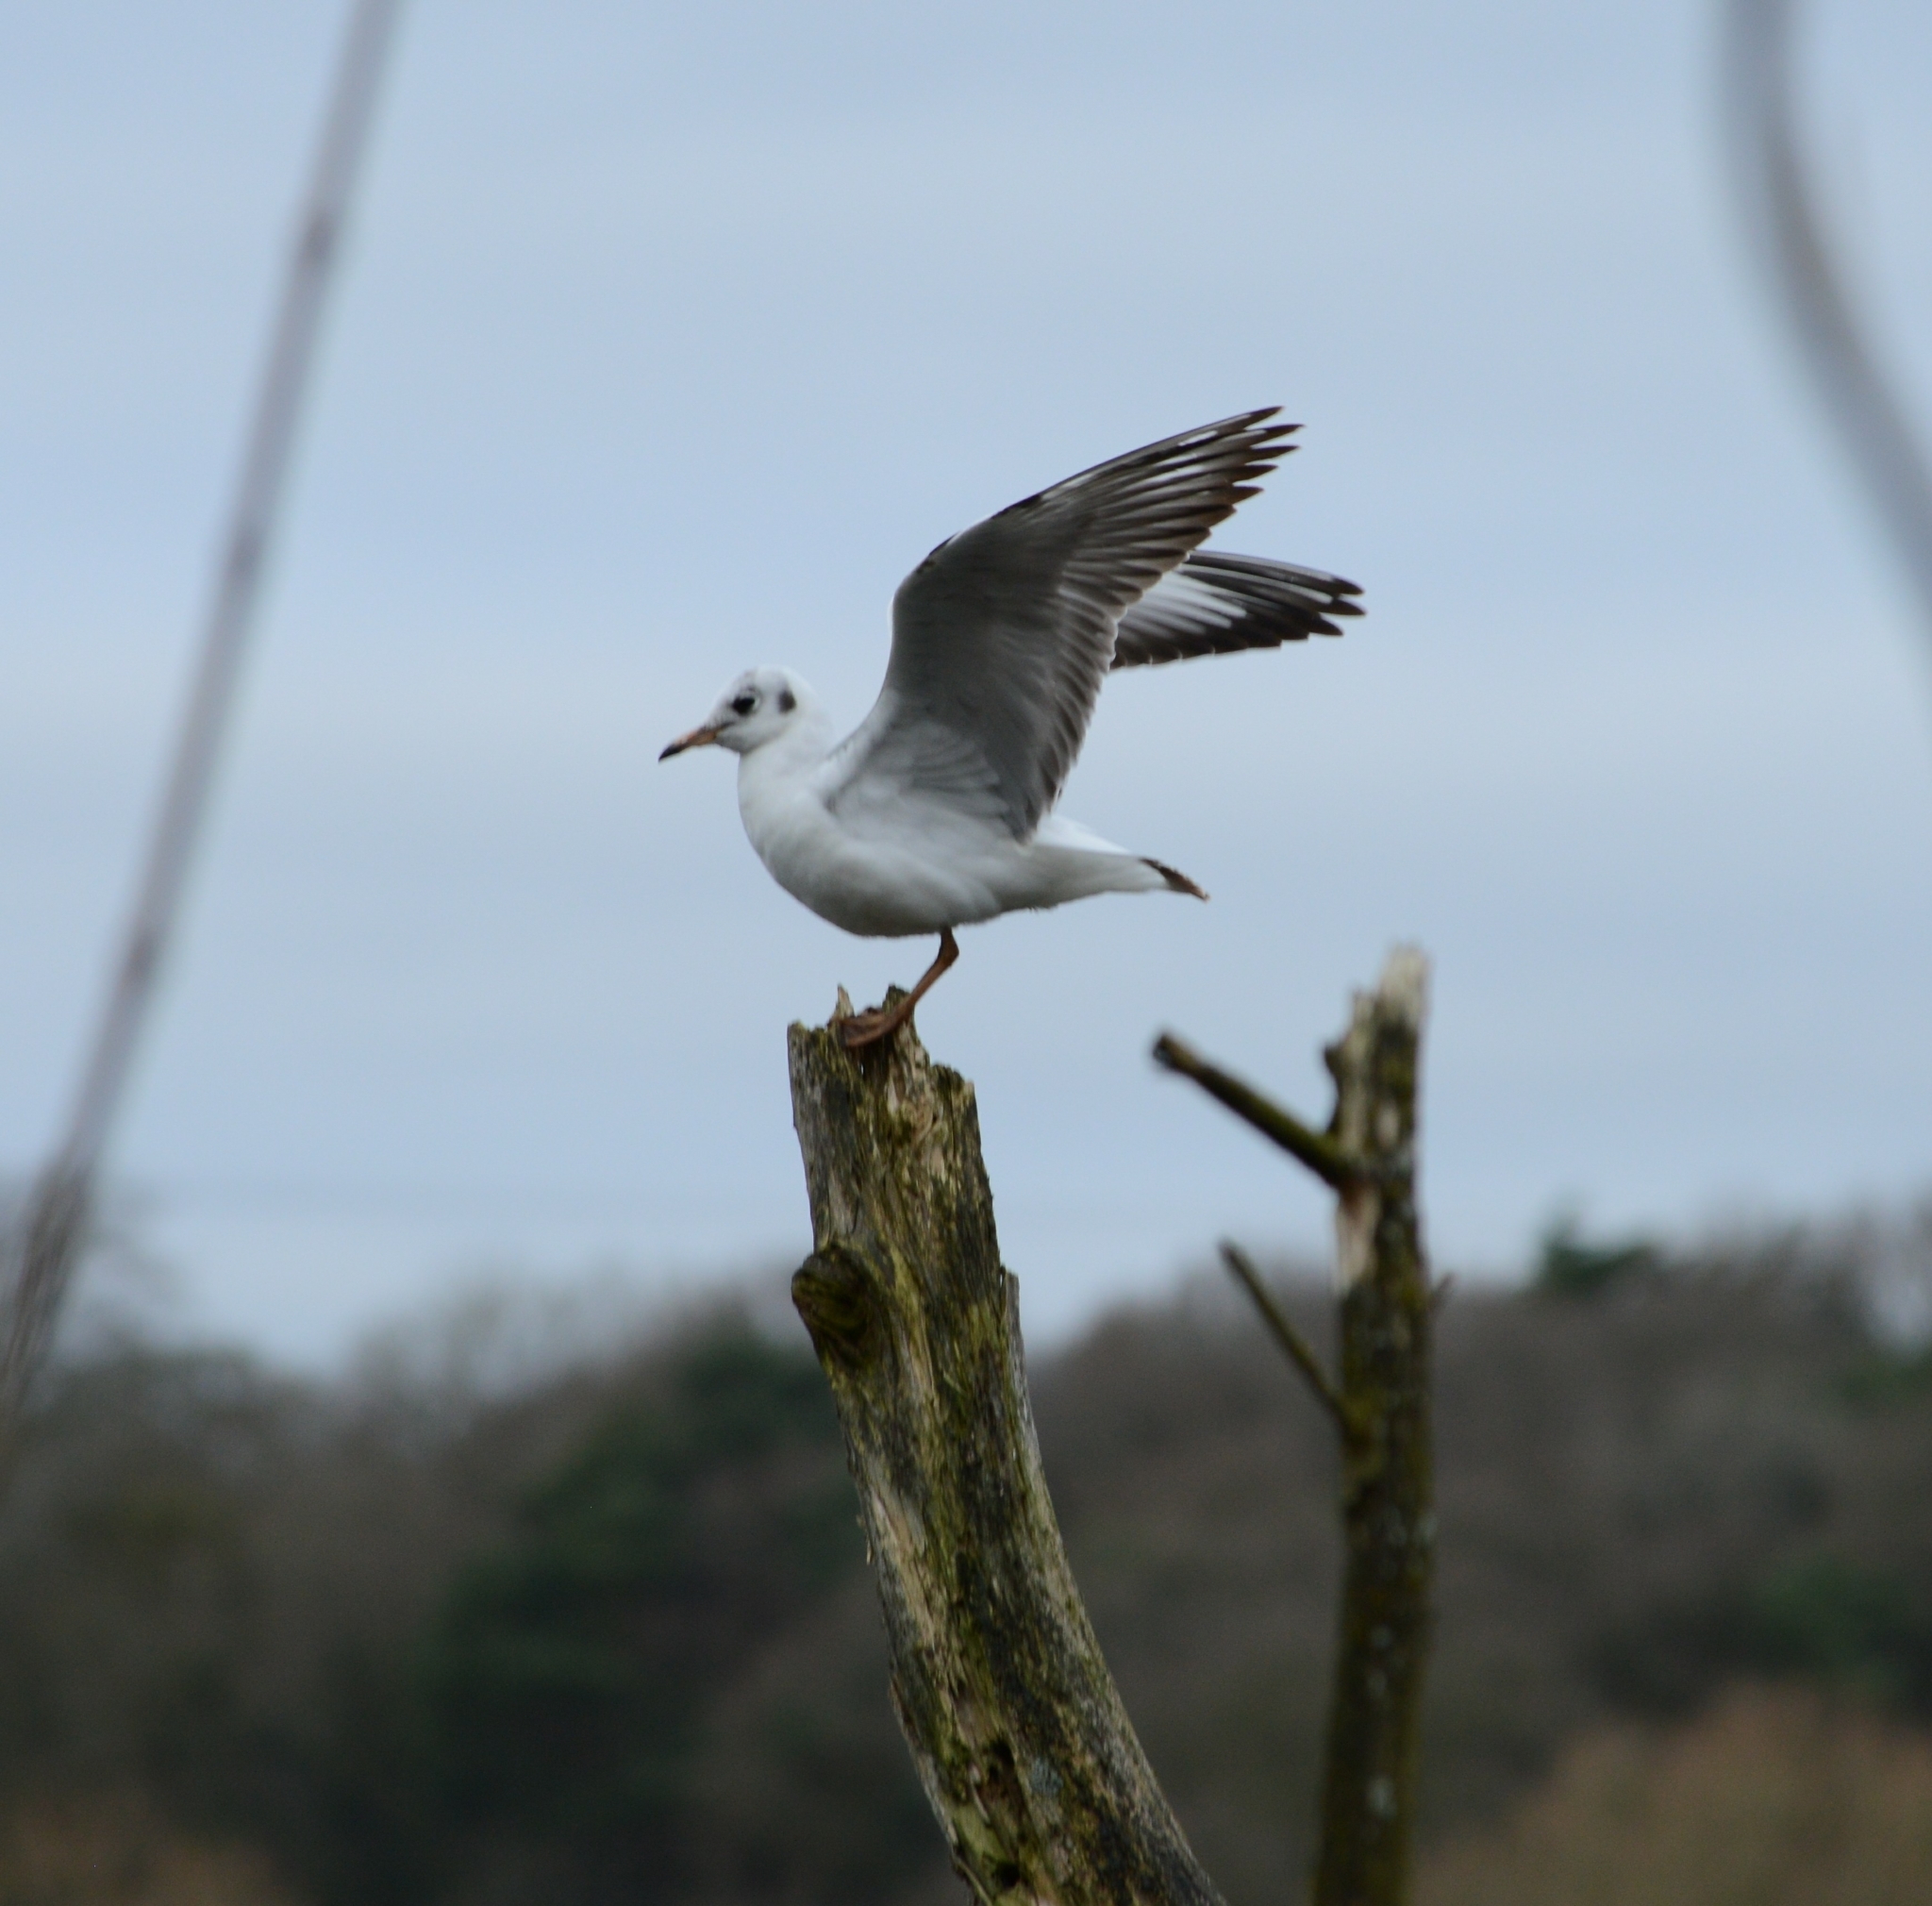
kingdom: Animalia
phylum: Chordata
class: Aves
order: Charadriiformes
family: Laridae
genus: Chroicocephalus
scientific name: Chroicocephalus ridibundus
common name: Black-headed gull
